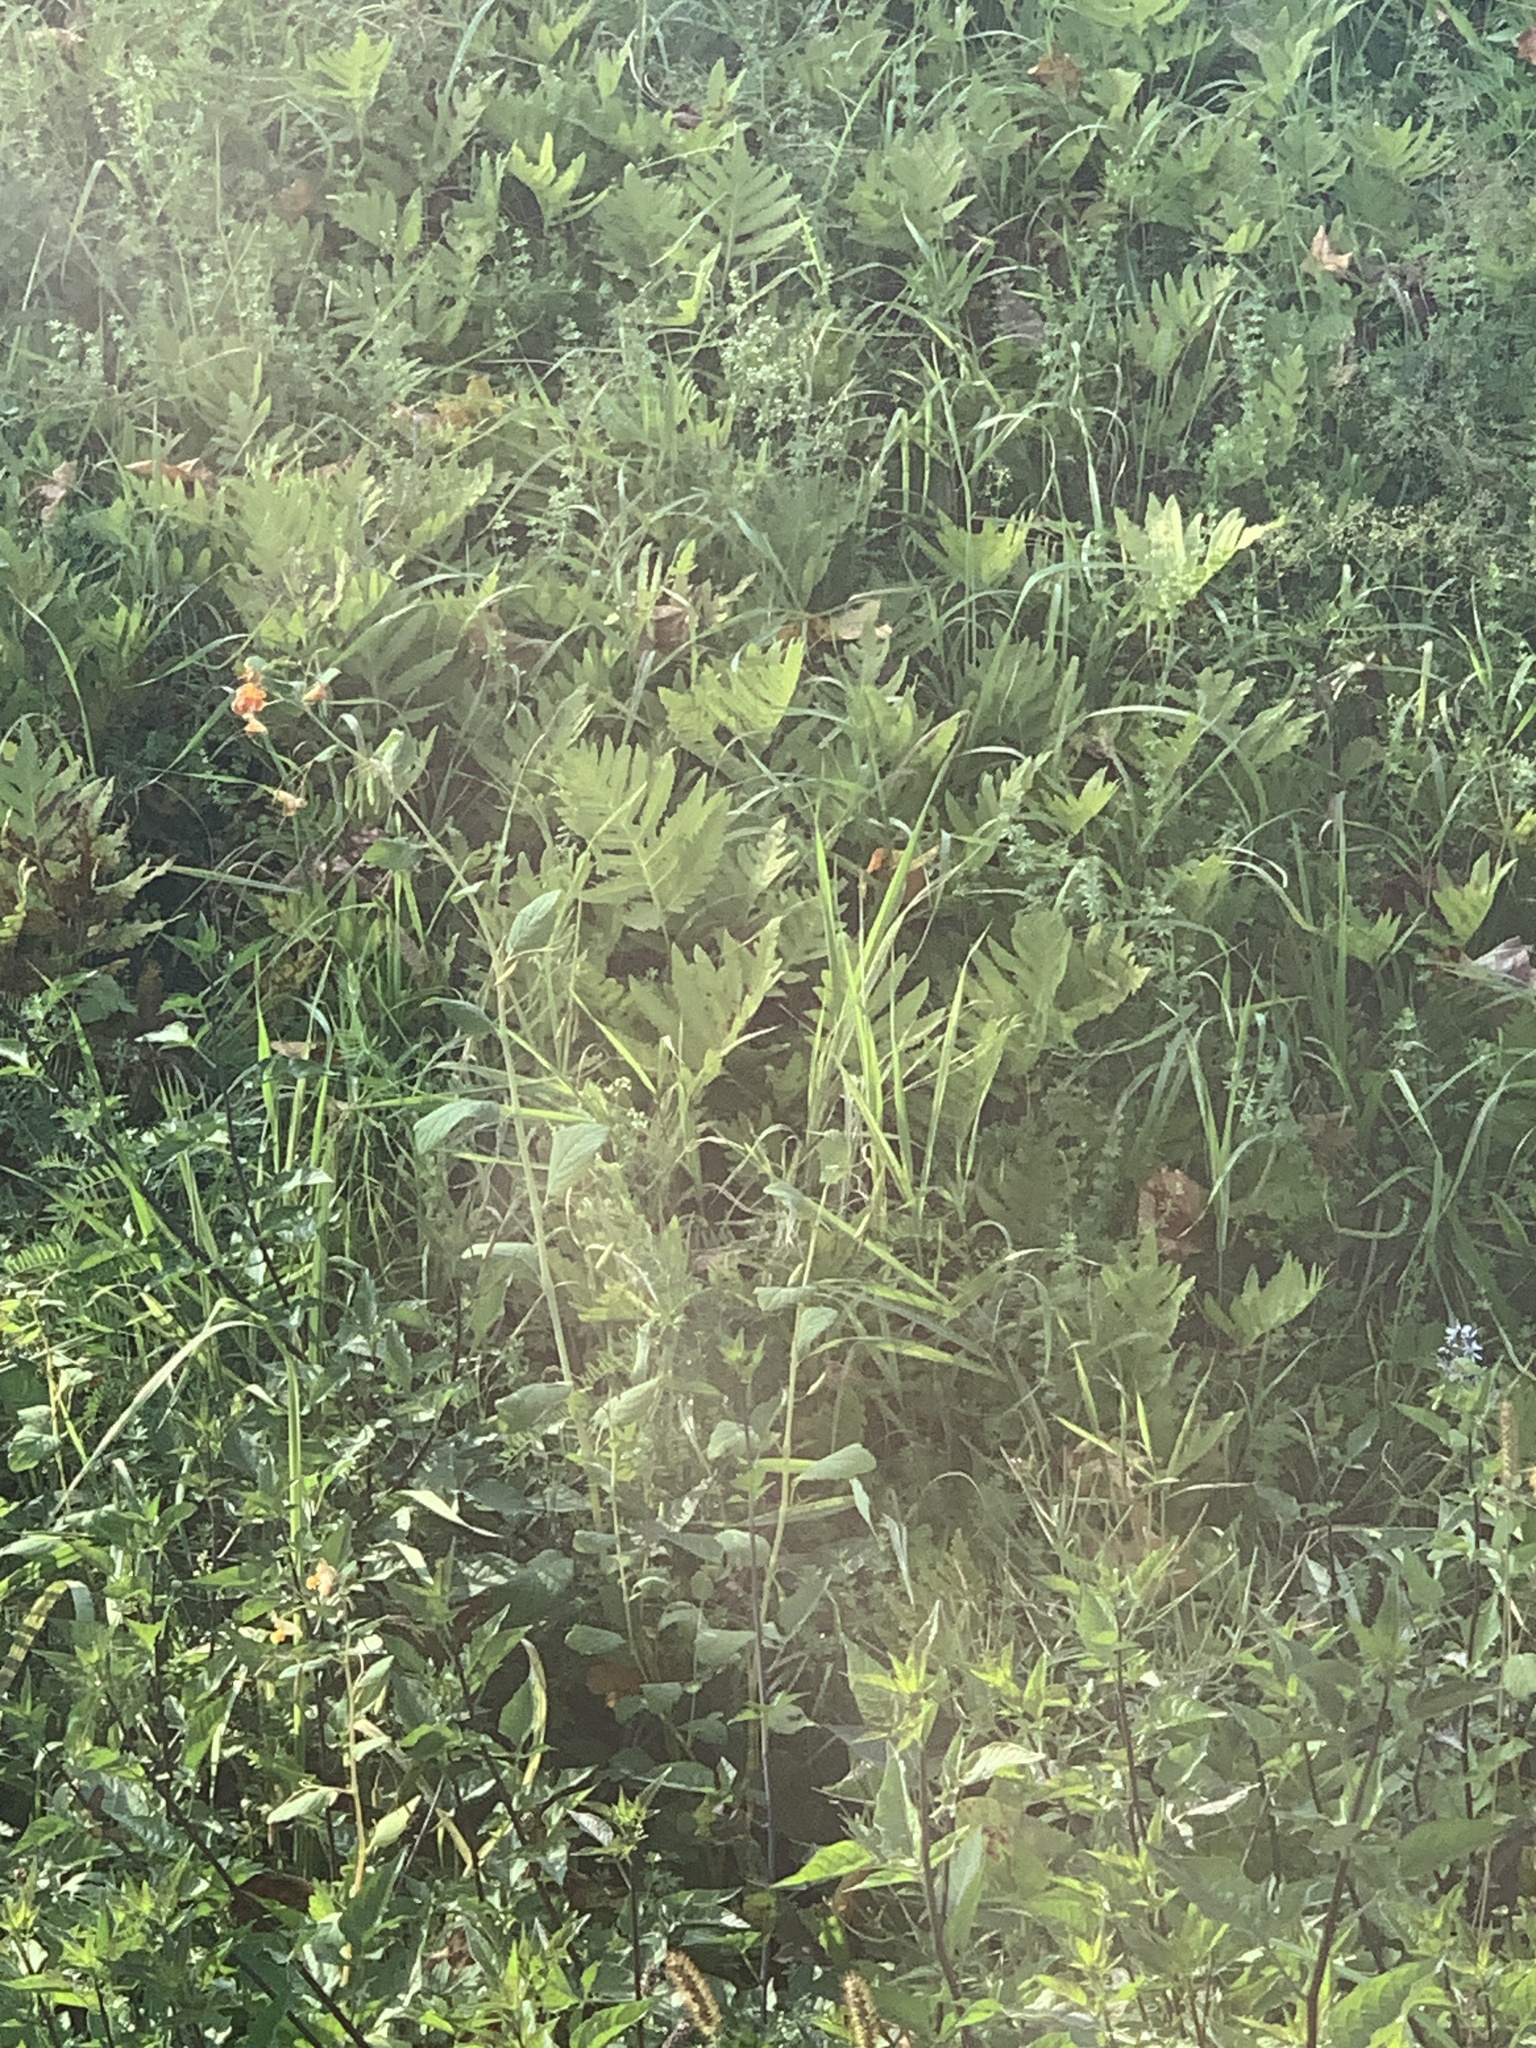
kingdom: Plantae
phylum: Tracheophyta
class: Polypodiopsida
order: Polypodiales
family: Onocleaceae
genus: Onoclea
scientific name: Onoclea sensibilis
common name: Sensitive fern
